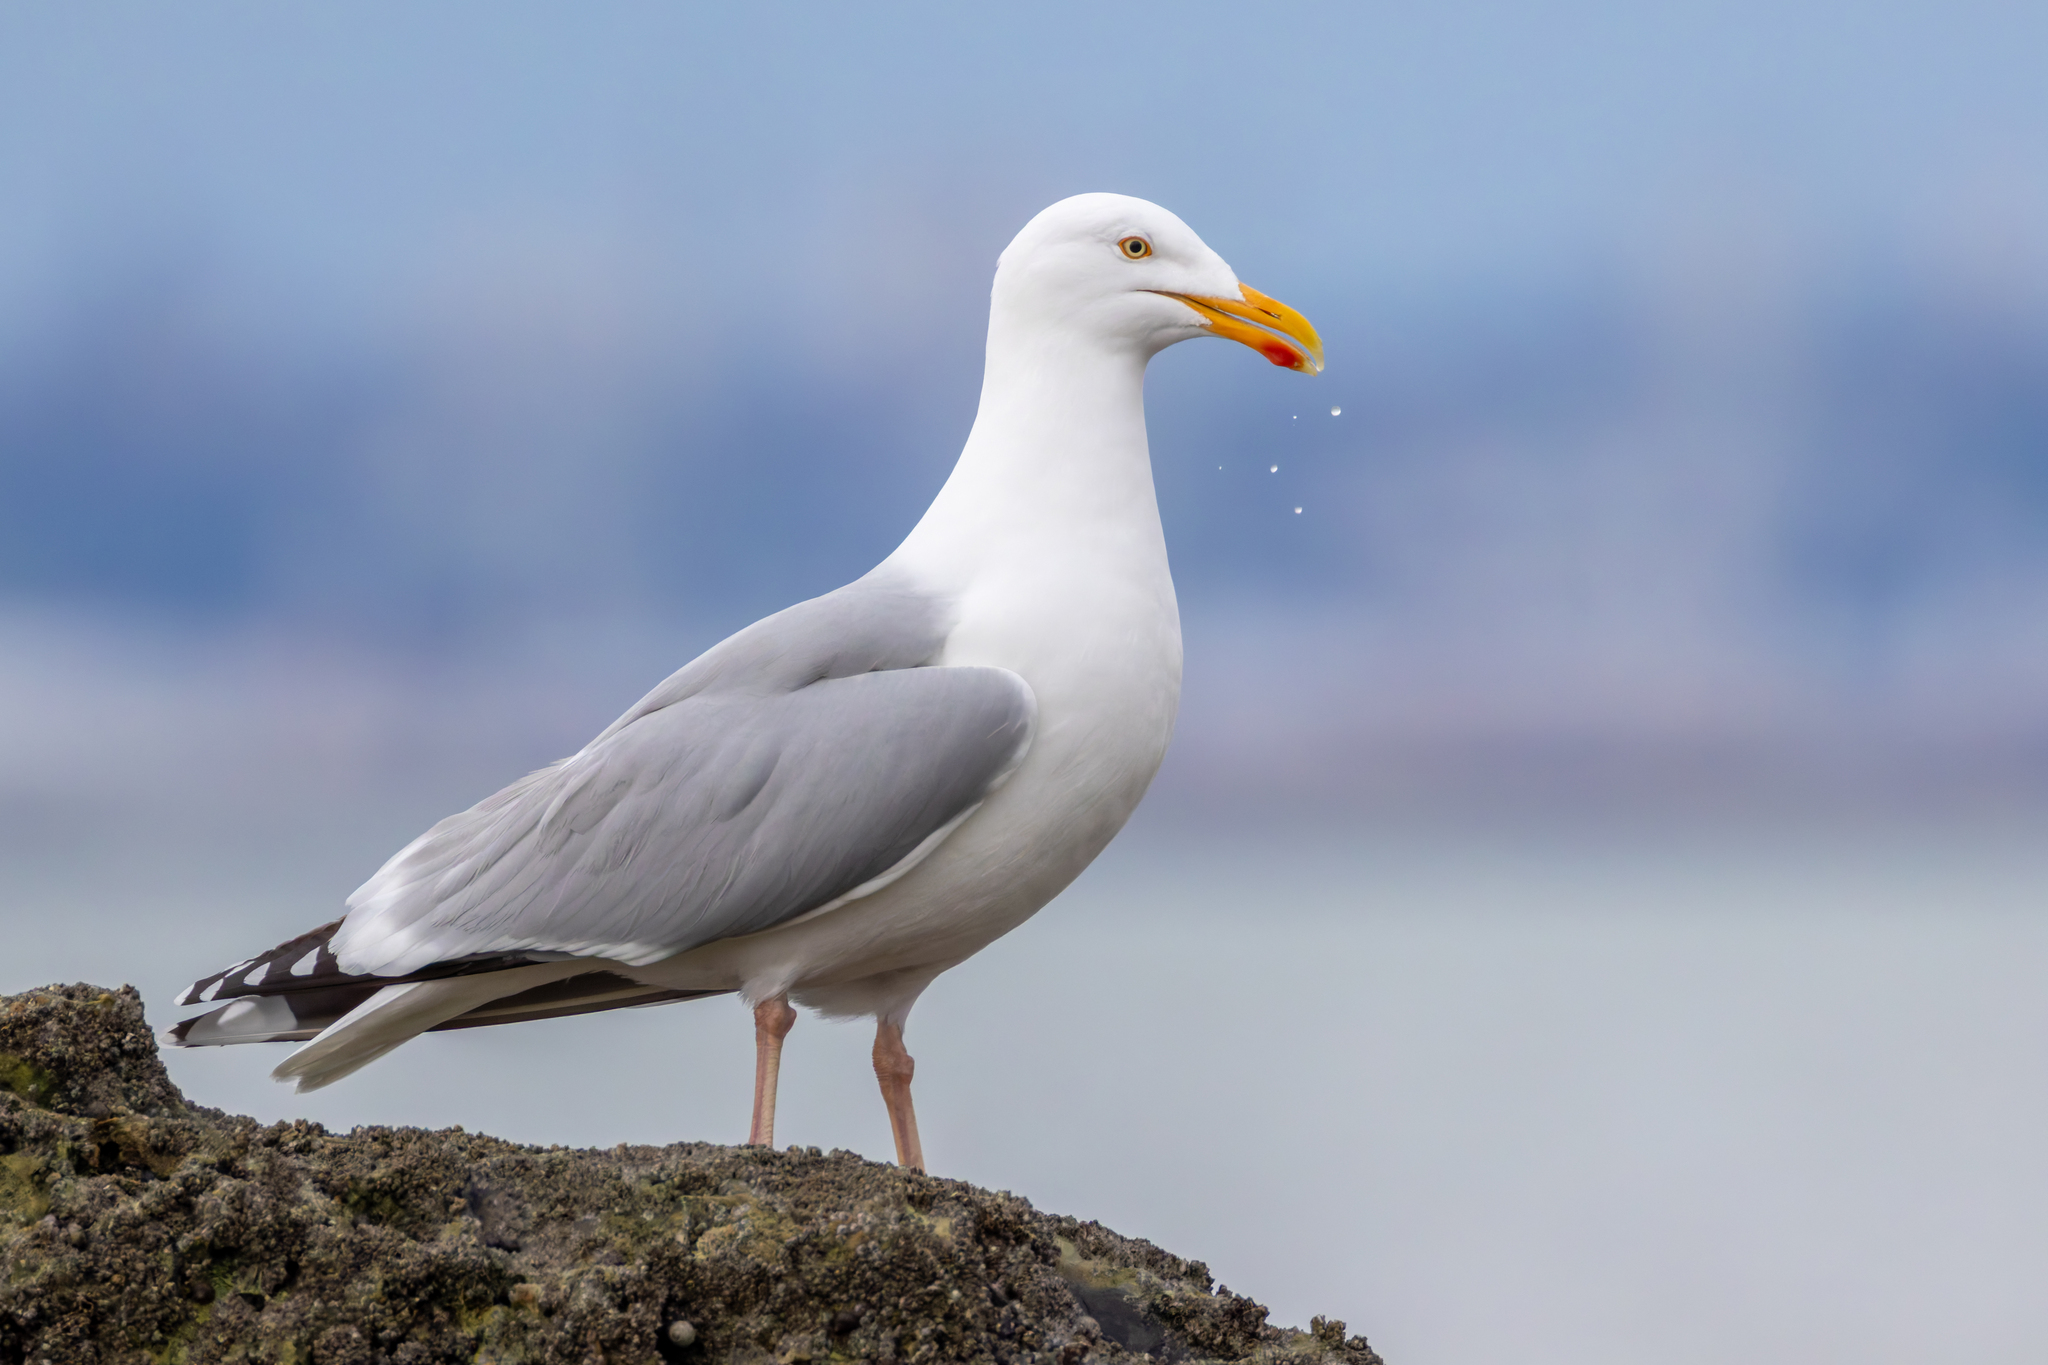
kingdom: Animalia
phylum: Chordata
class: Aves
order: Charadriiformes
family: Laridae
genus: Larus
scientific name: Larus argentatus
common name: Herring gull
